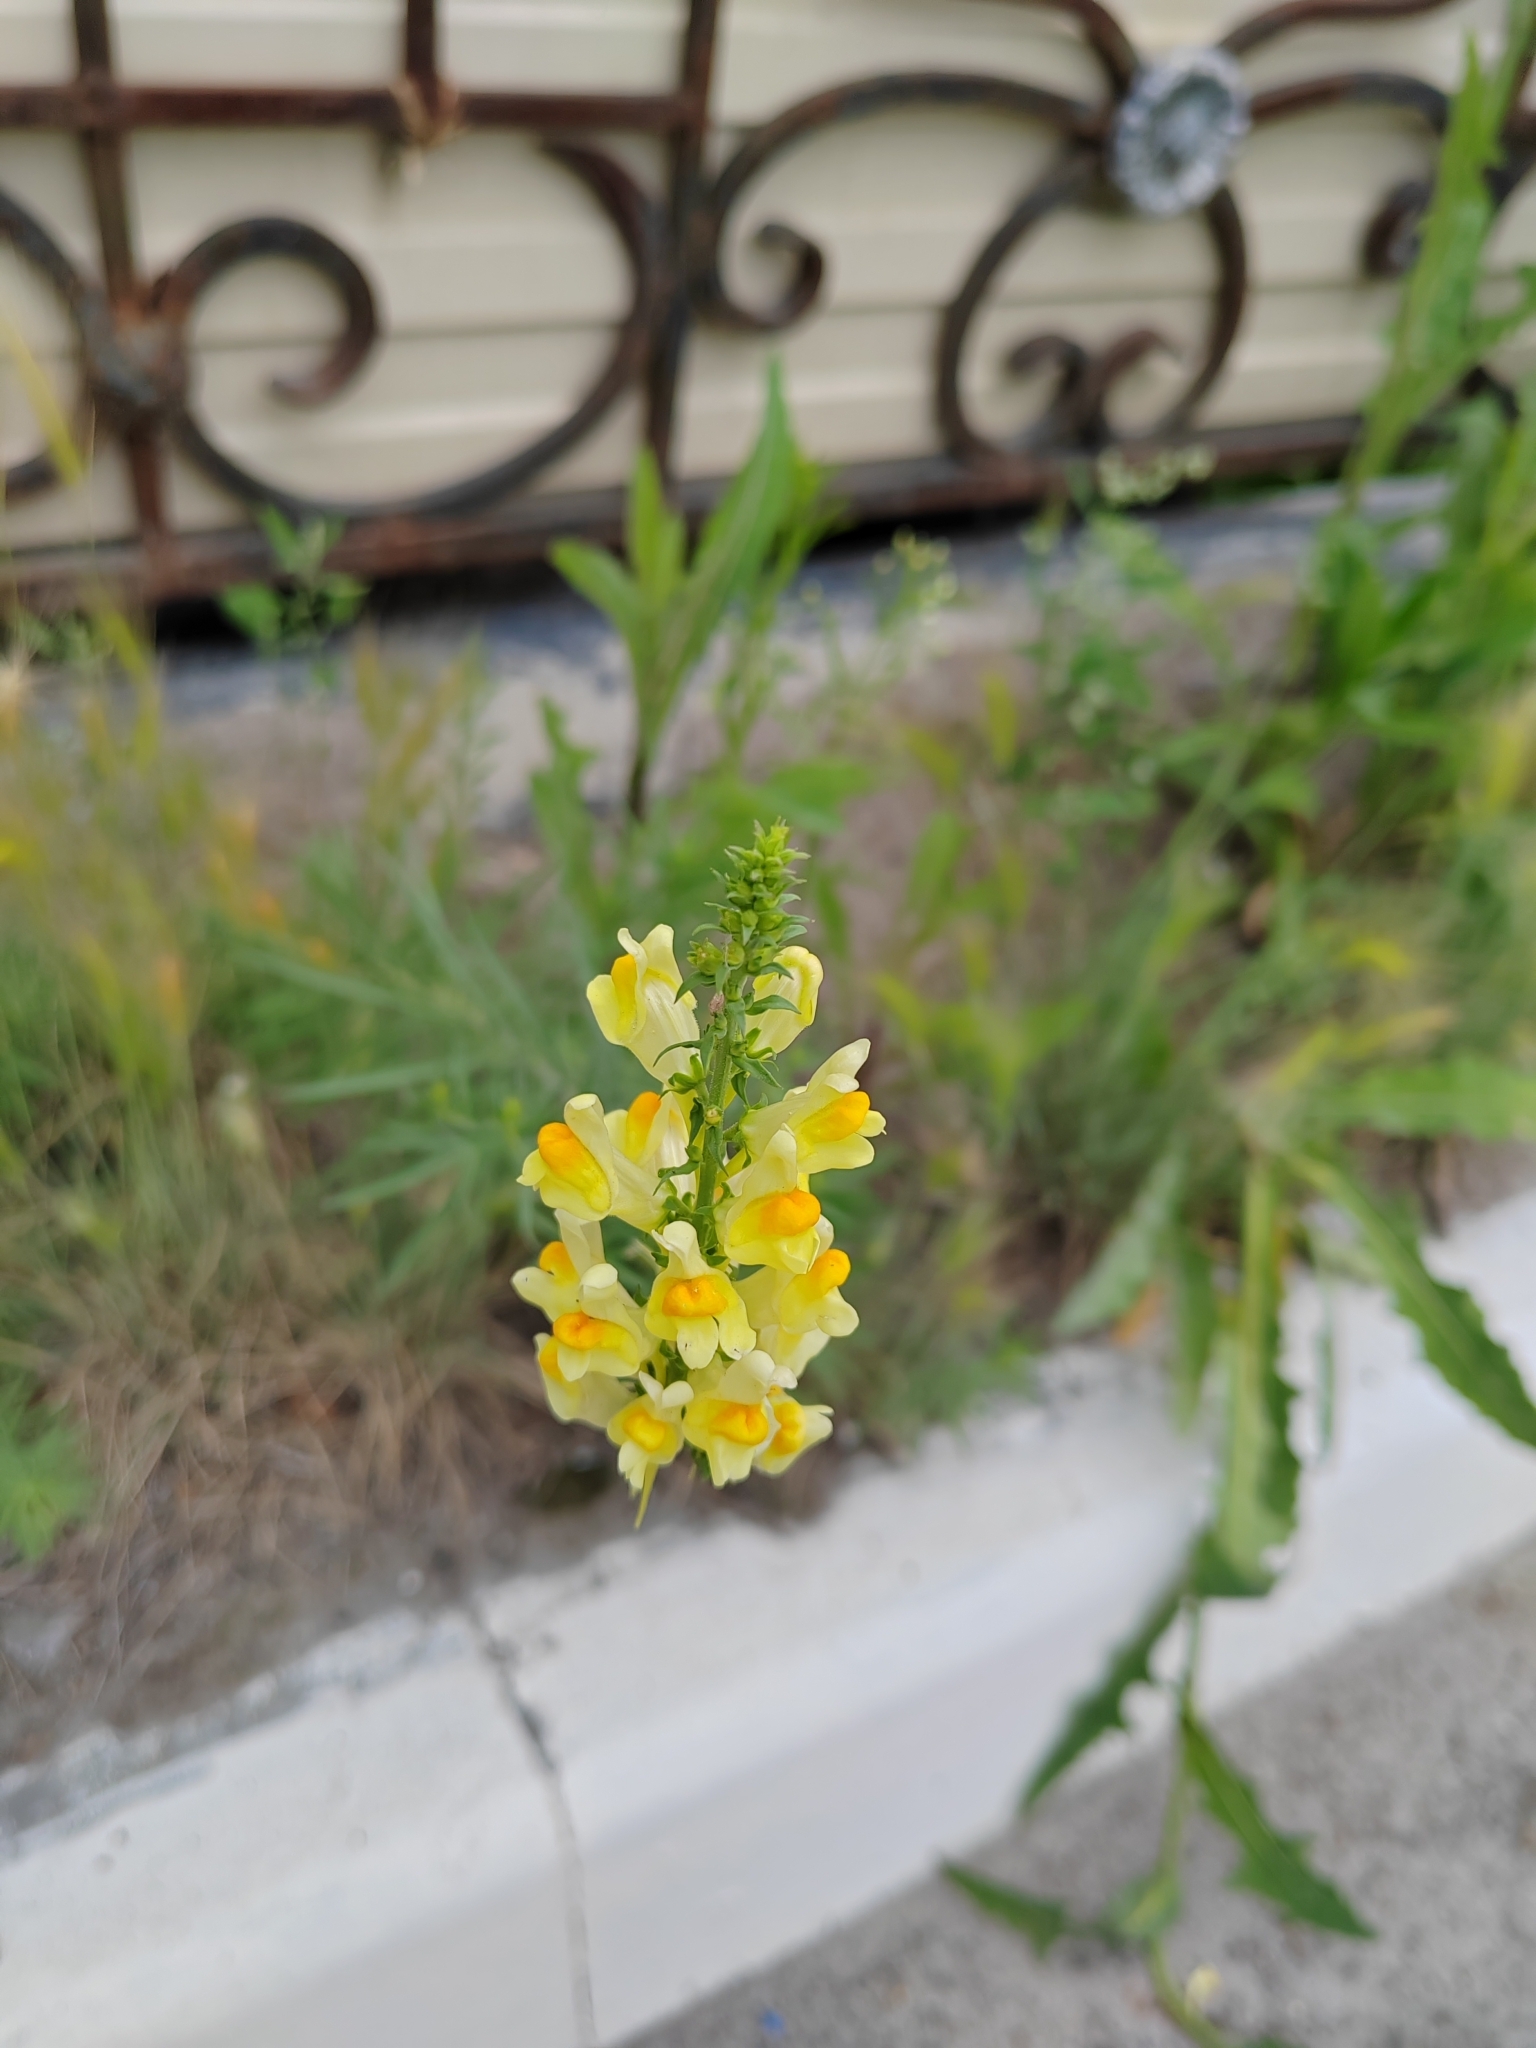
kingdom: Plantae
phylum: Tracheophyta
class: Magnoliopsida
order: Lamiales
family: Plantaginaceae
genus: Linaria
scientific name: Linaria vulgaris
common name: Butter and eggs
